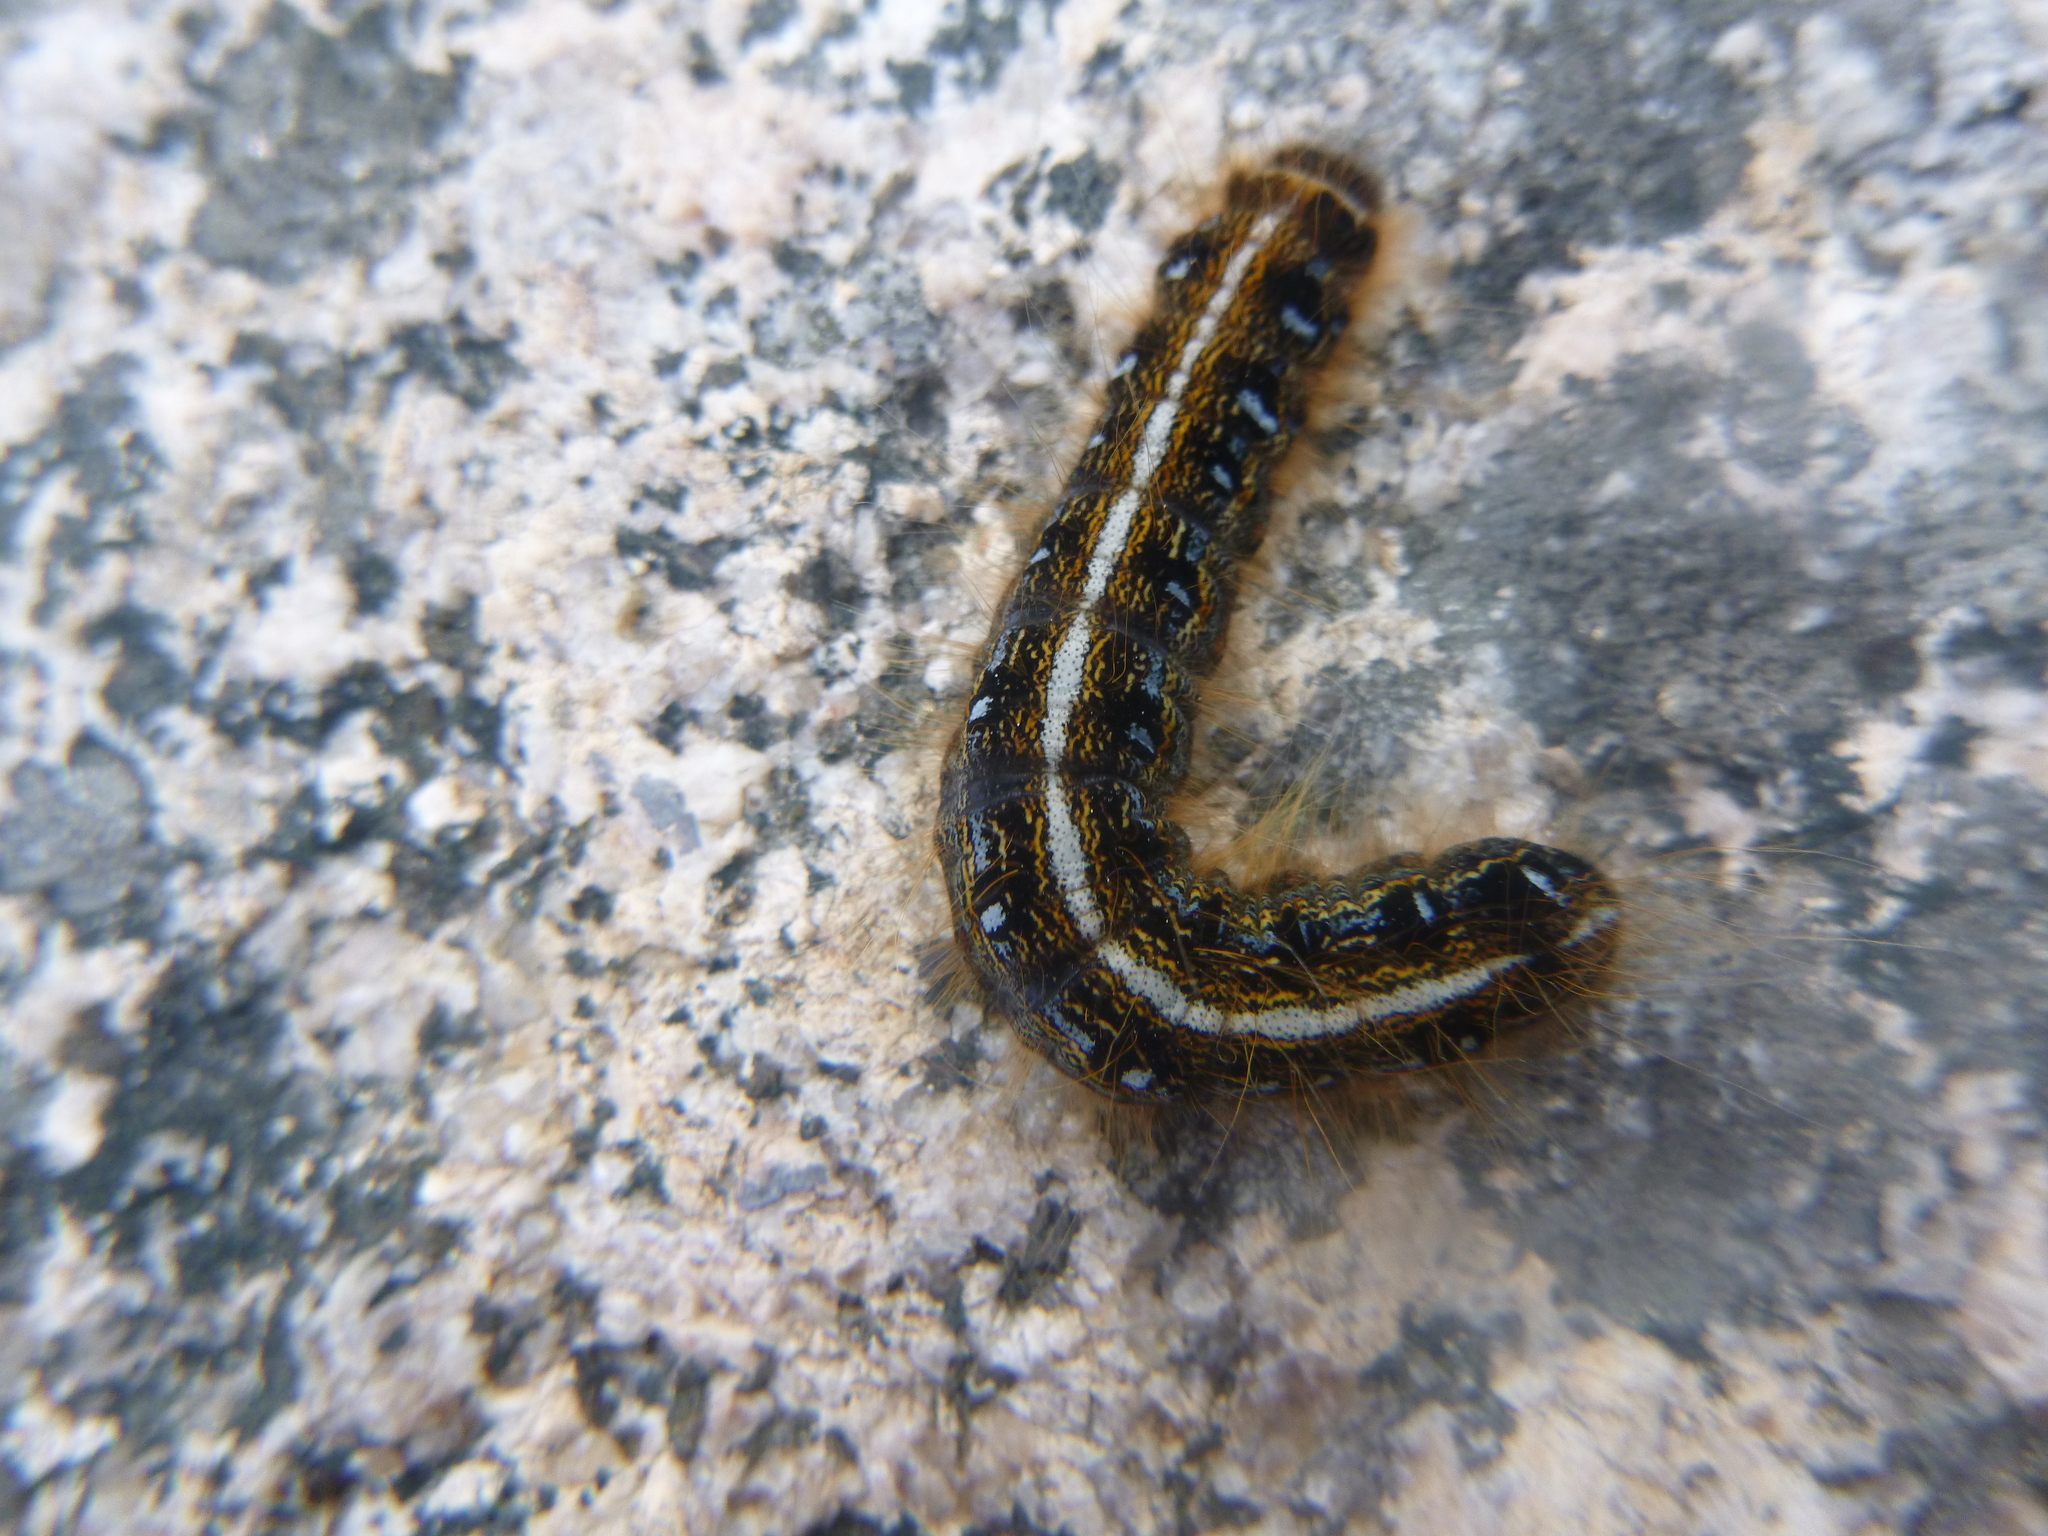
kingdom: Animalia
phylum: Arthropoda
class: Insecta
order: Lepidoptera
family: Lasiocampidae
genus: Malacosoma
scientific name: Malacosoma americana
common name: Eastern tent caterpillar moth
